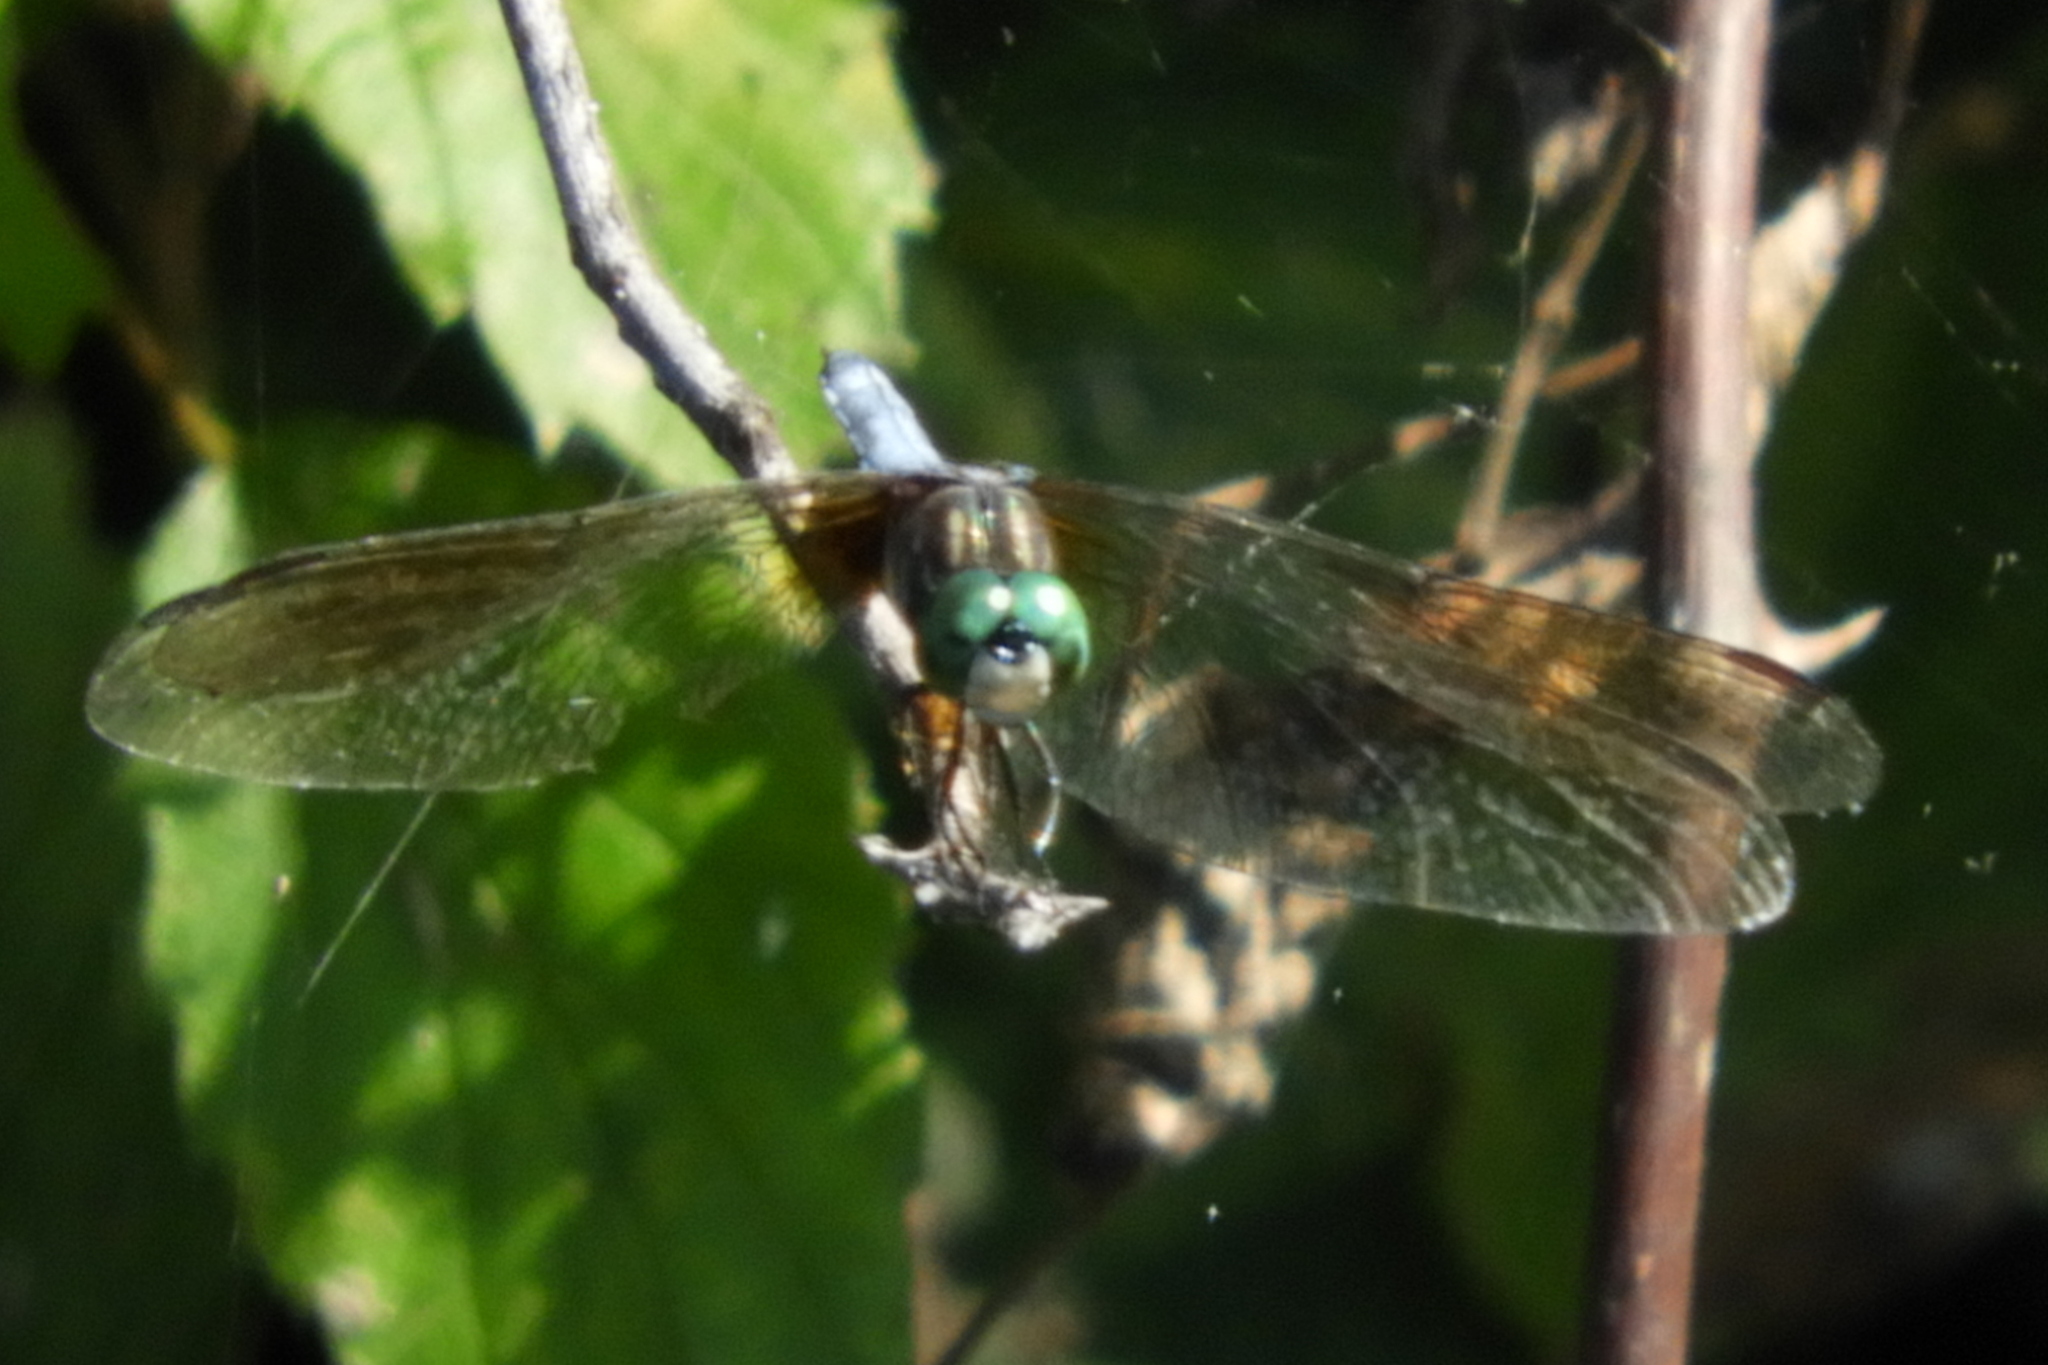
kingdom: Animalia
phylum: Arthropoda
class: Insecta
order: Odonata
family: Libellulidae
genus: Pachydiplax
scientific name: Pachydiplax longipennis
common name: Blue dasher
